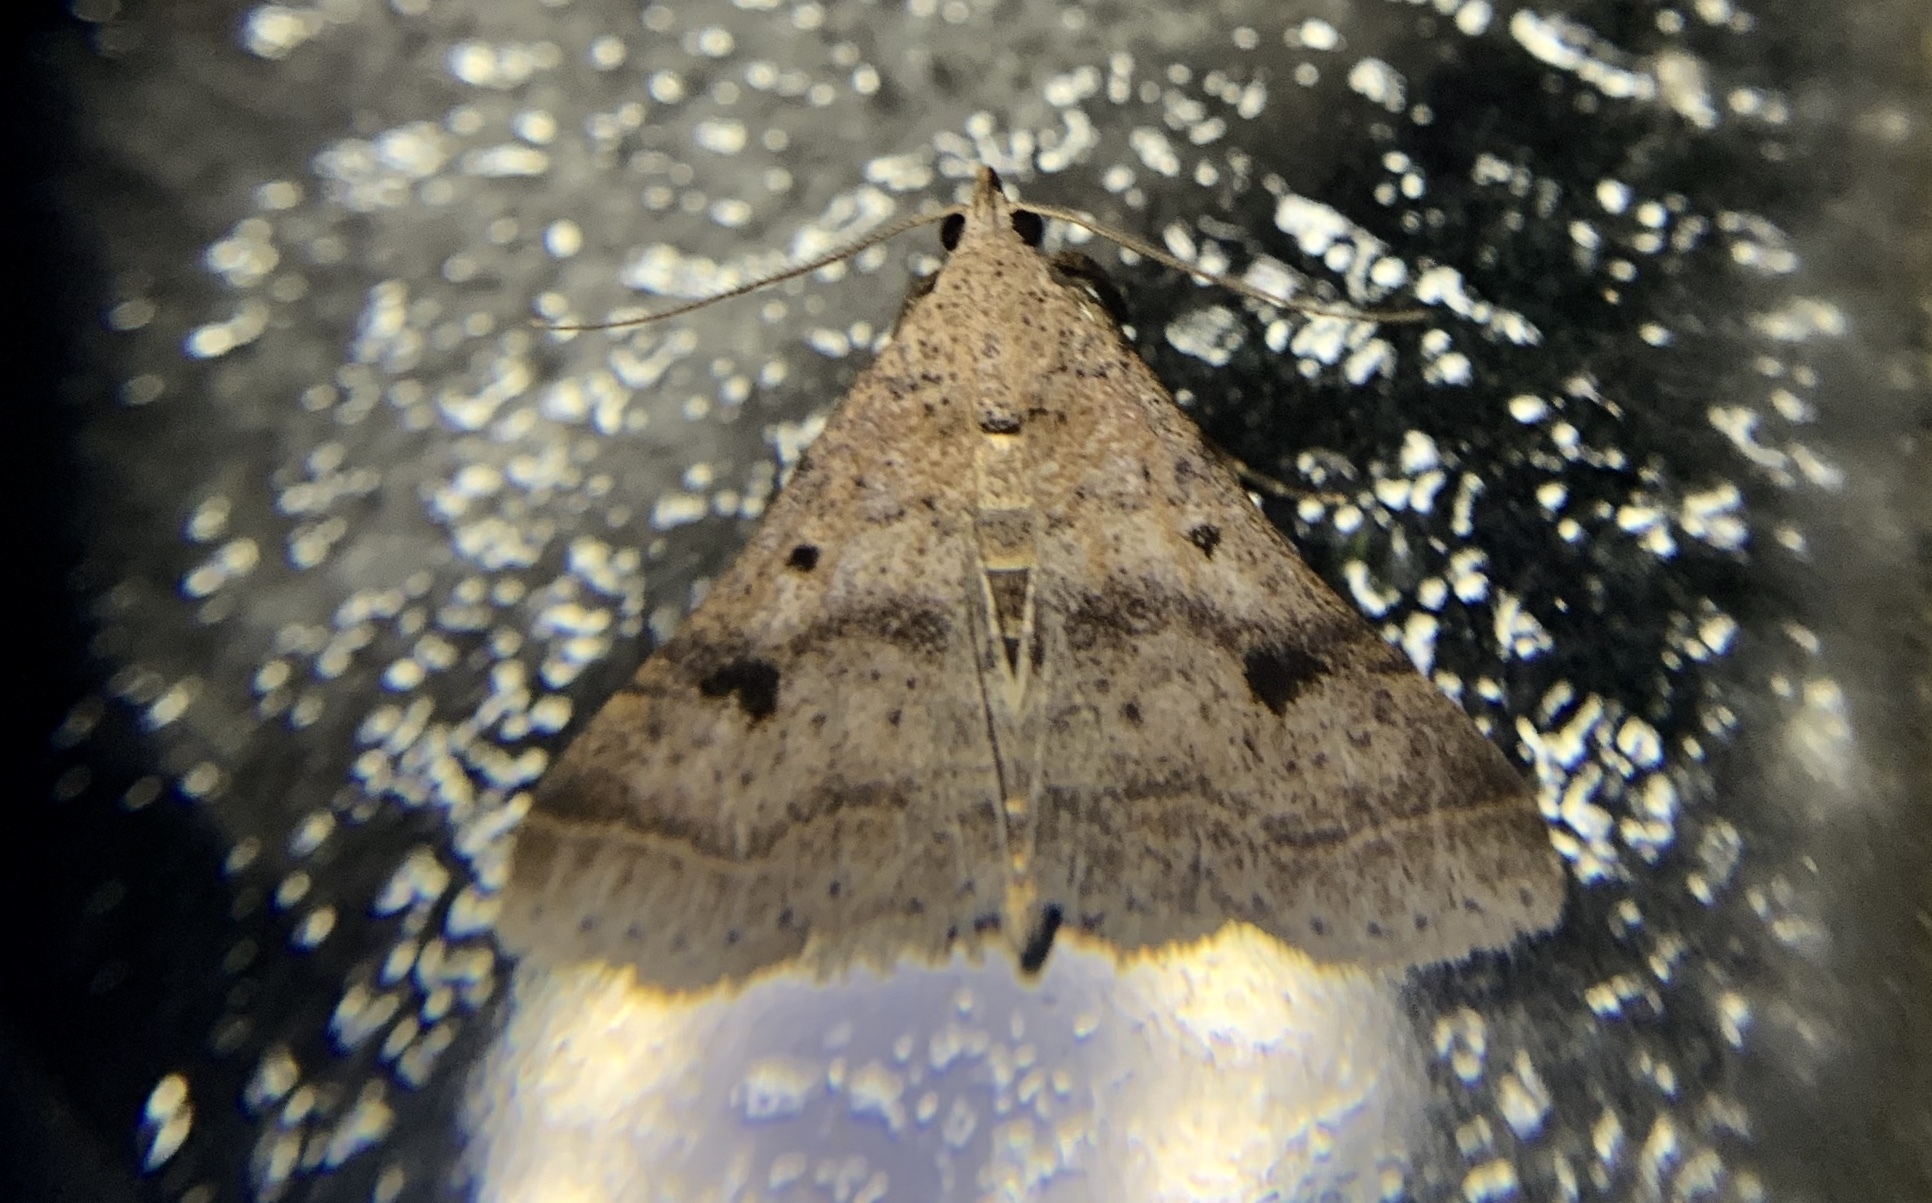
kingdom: Animalia
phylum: Arthropoda
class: Insecta
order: Lepidoptera
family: Erebidae
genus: Bleptina
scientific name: Bleptina caradrinalis
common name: Bent-winged owlet
